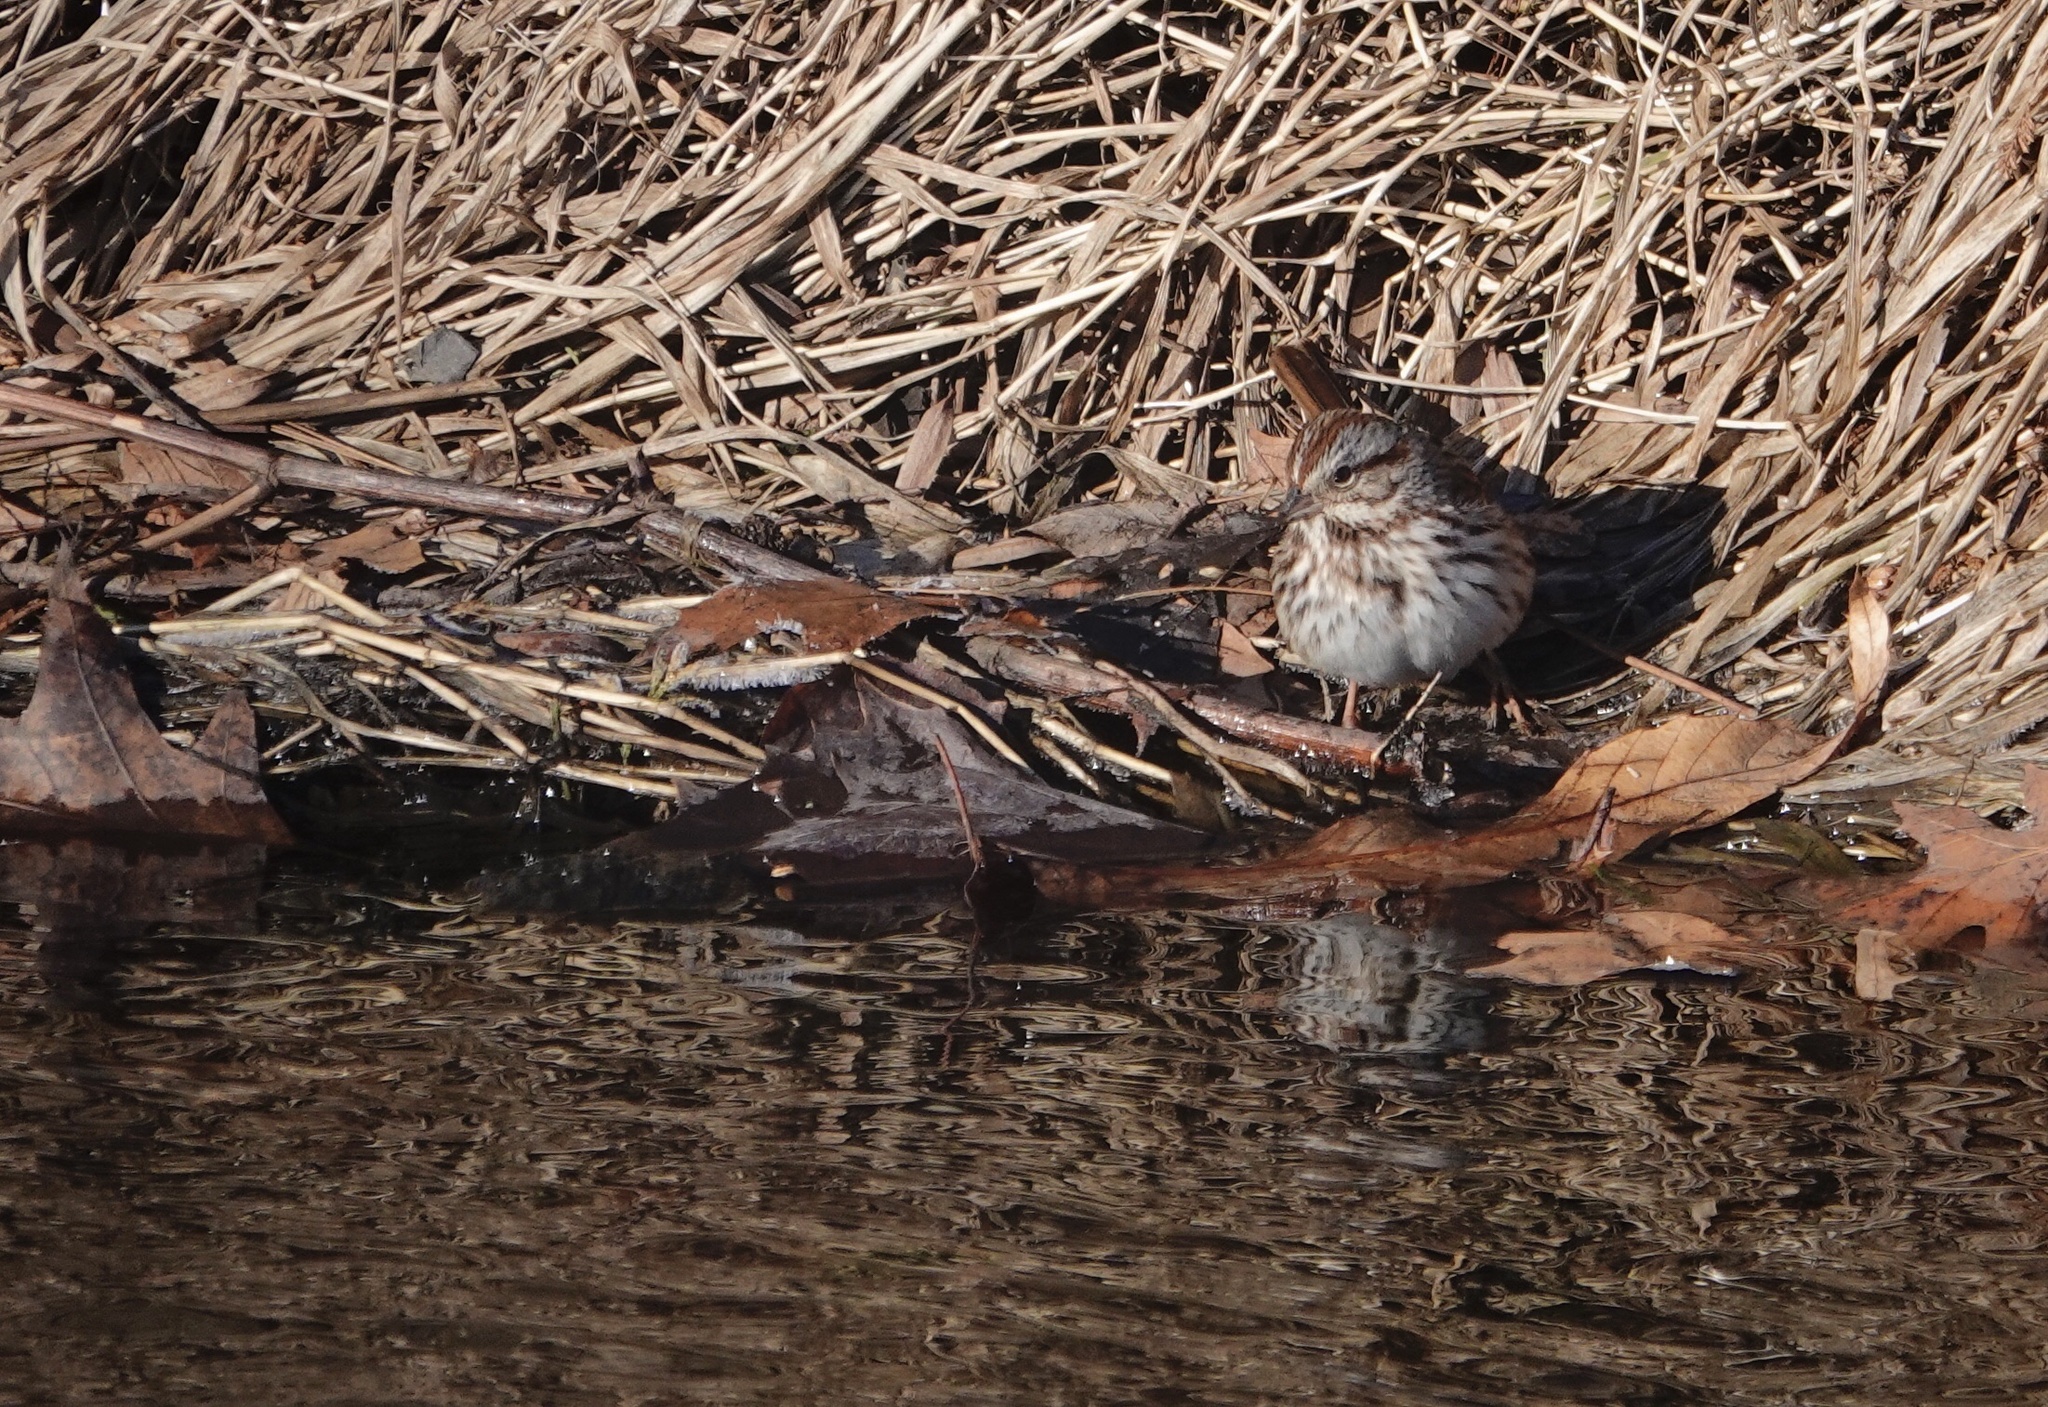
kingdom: Animalia
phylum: Chordata
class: Aves
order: Passeriformes
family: Passerellidae
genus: Melospiza
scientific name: Melospiza melodia
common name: Song sparrow
